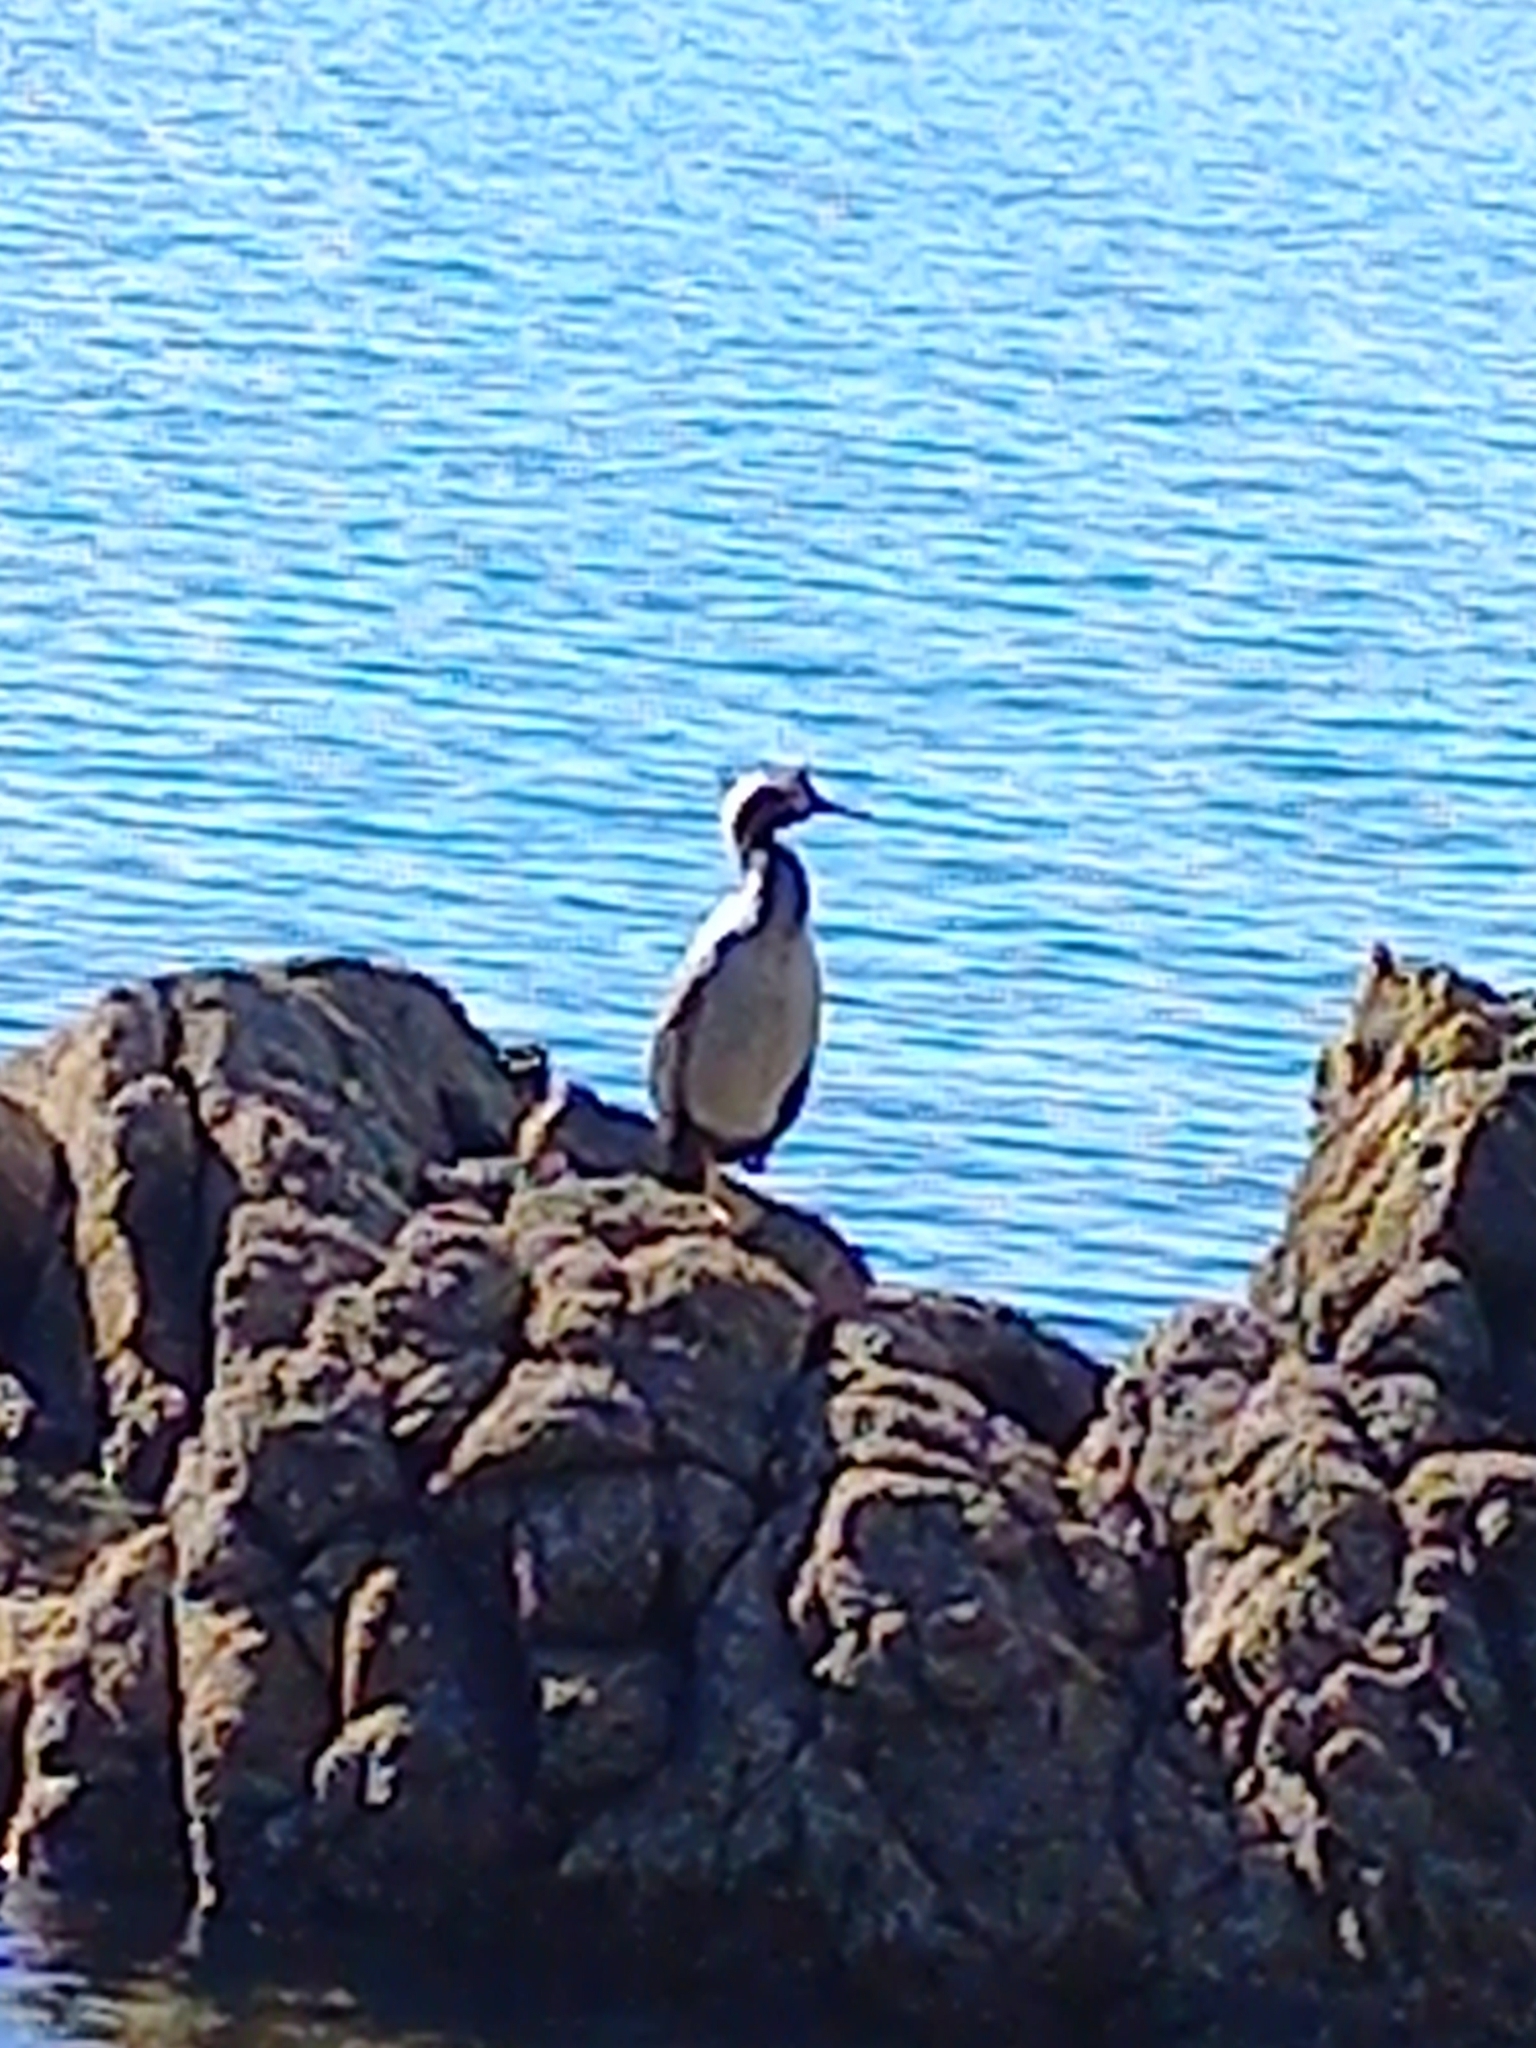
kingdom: Animalia
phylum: Chordata
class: Aves
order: Suliformes
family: Phalacrocoracidae
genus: Phalacrocorax
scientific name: Phalacrocorax punctatus
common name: Spotted shag
